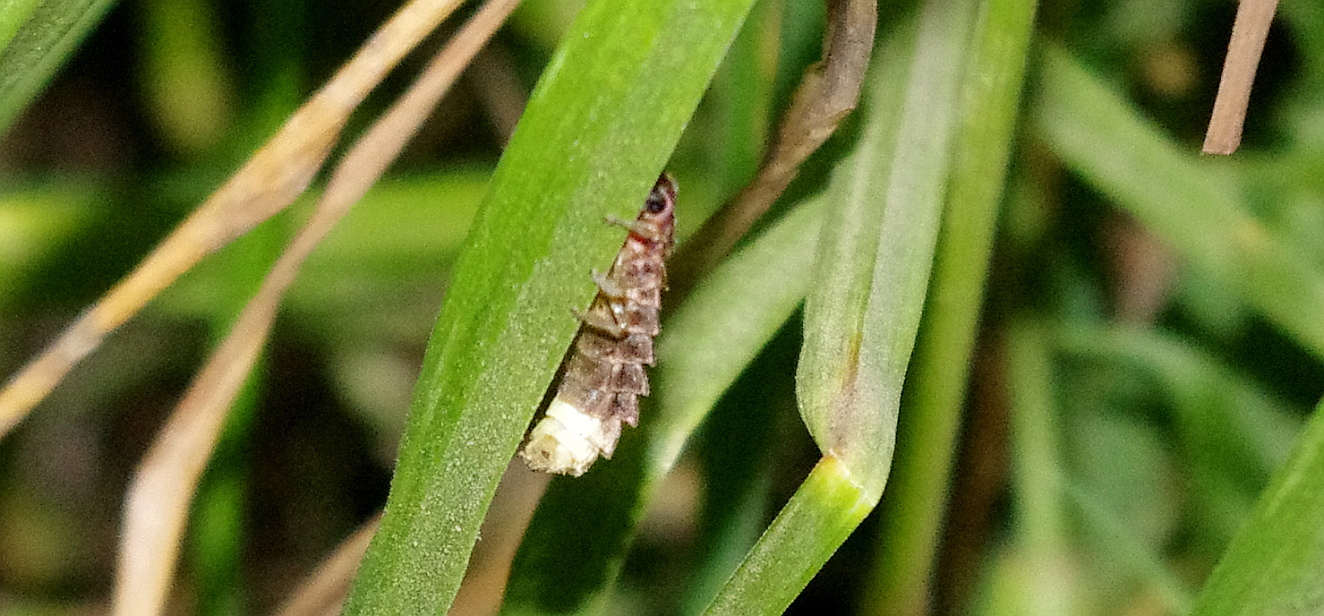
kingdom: Animalia
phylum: Arthropoda
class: Insecta
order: Coleoptera
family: Lampyridae
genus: Lampyris
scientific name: Lampyris noctiluca
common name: Glow-worm
